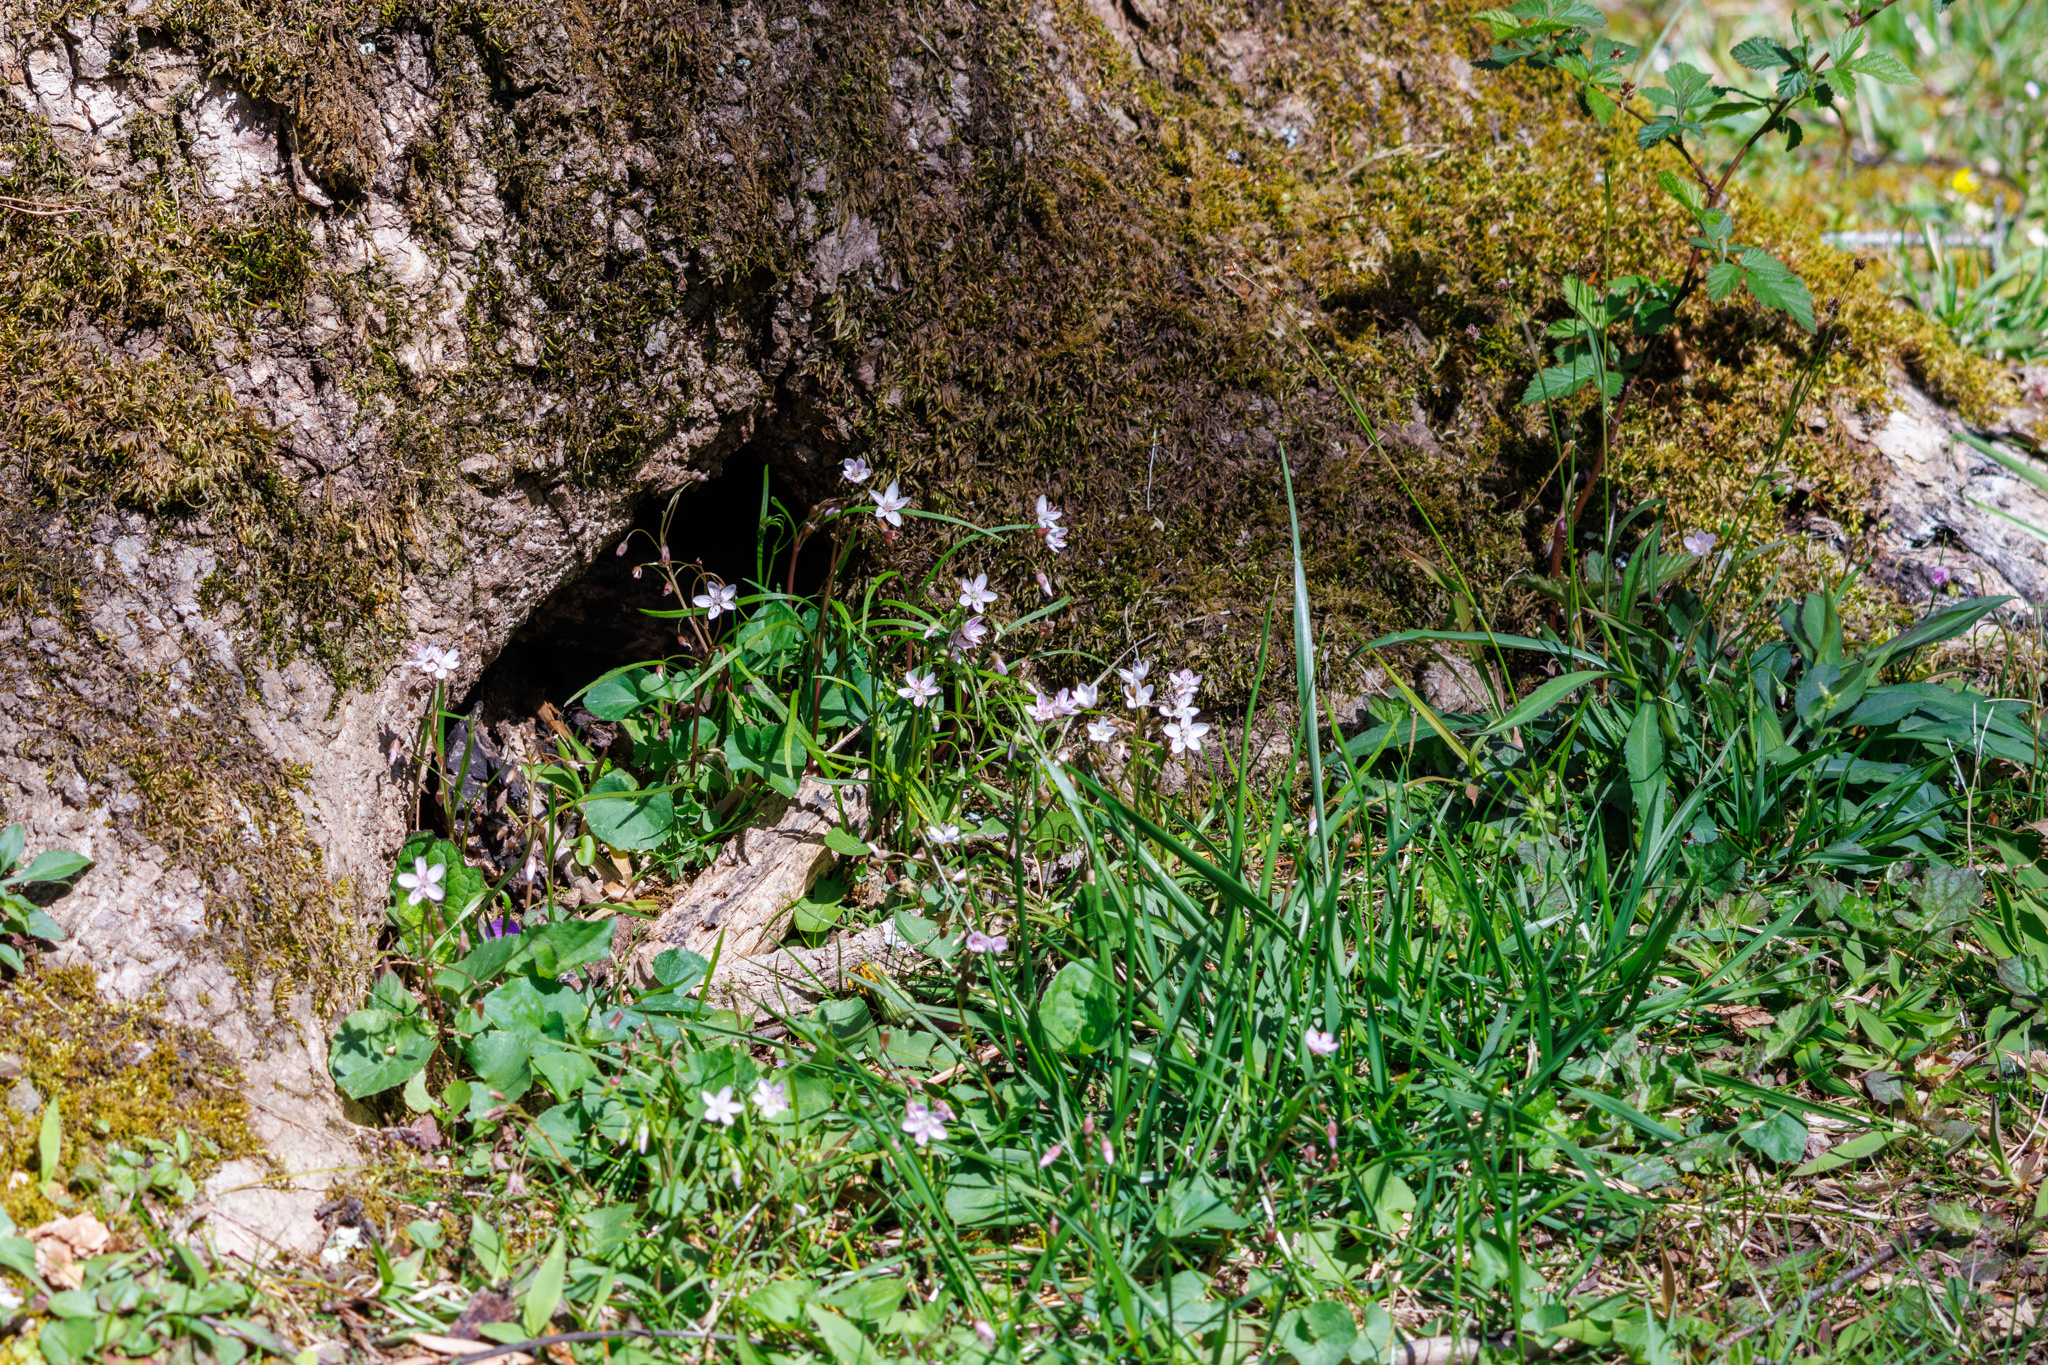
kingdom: Plantae
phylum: Tracheophyta
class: Magnoliopsida
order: Caryophyllales
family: Montiaceae
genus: Claytonia
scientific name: Claytonia virginica
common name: Virginia springbeauty
